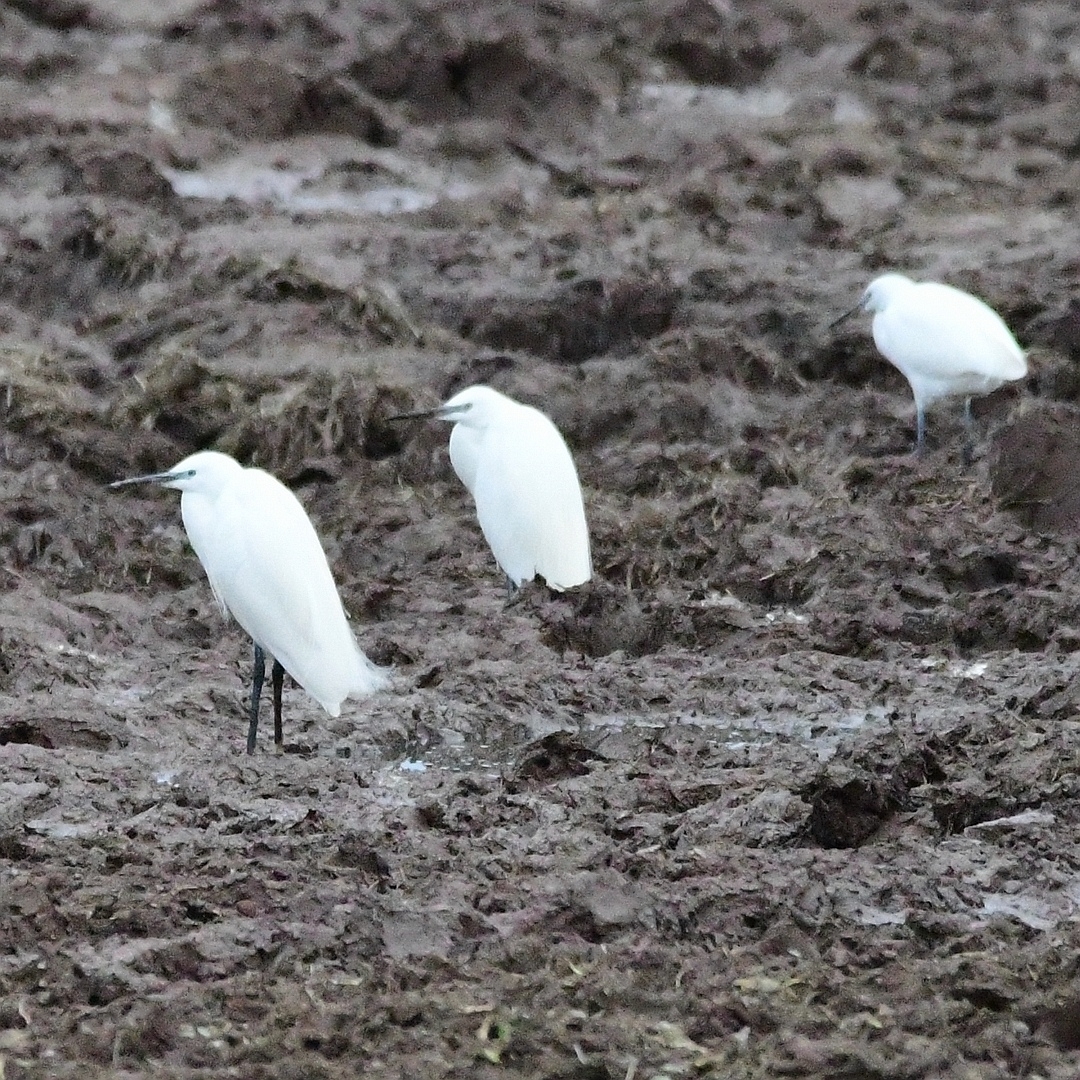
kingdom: Animalia
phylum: Chordata
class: Aves
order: Pelecaniformes
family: Ardeidae
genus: Egretta
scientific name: Egretta garzetta
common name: Little egret
